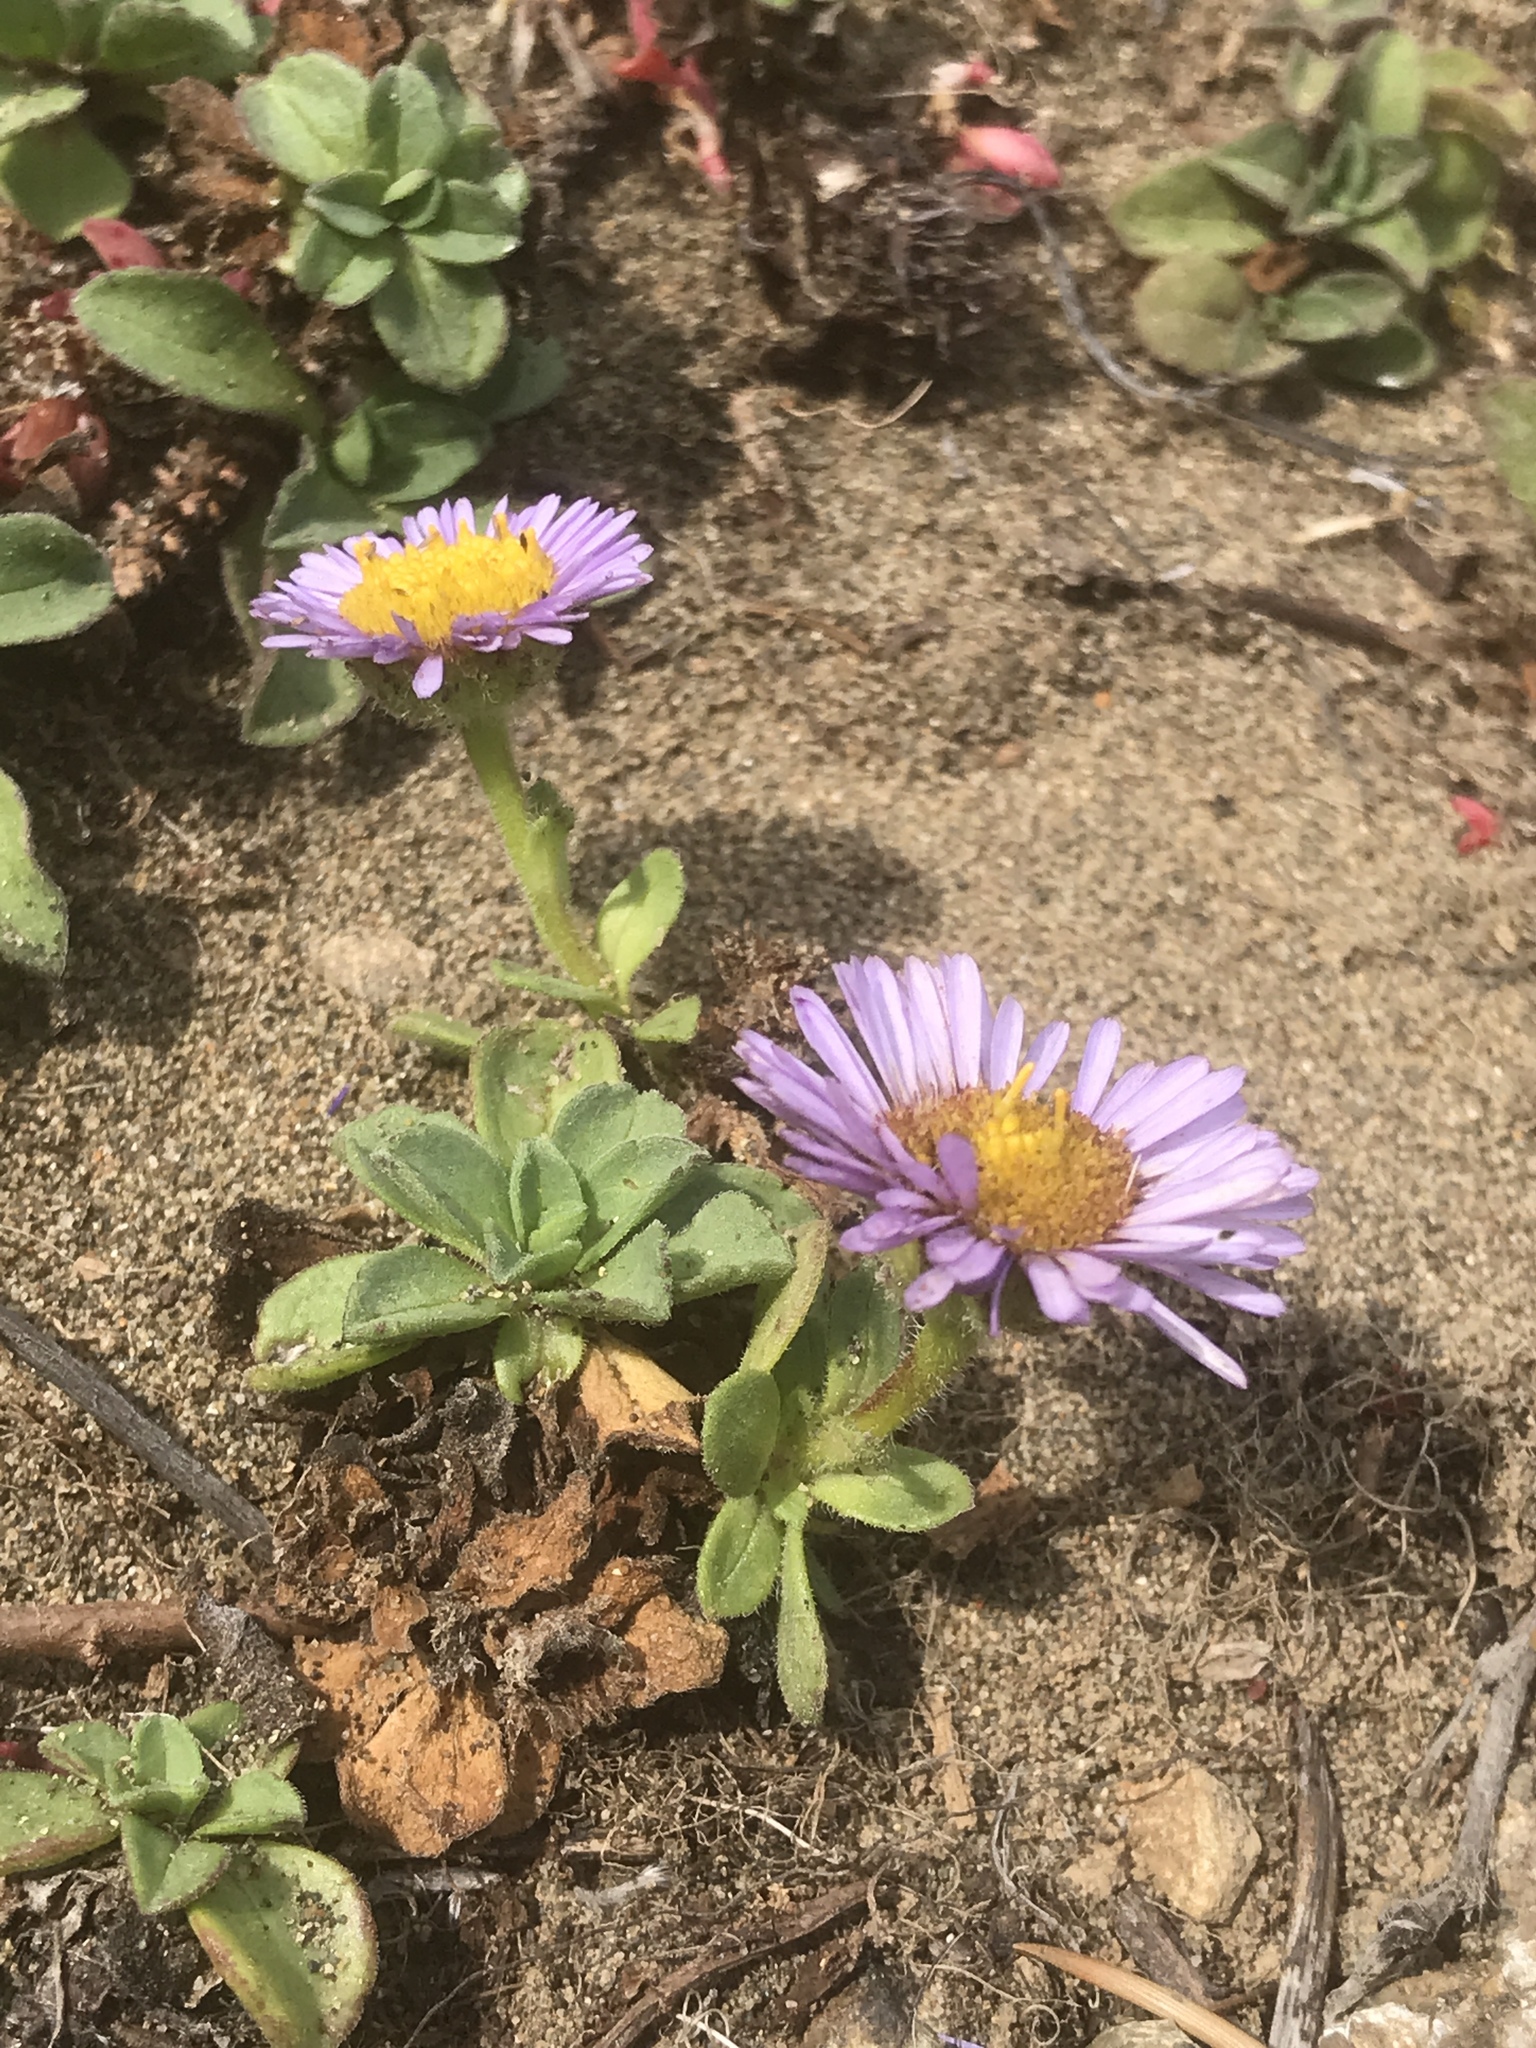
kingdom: Plantae
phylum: Tracheophyta
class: Magnoliopsida
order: Asterales
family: Asteraceae
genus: Erigeron
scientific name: Erigeron glaucus
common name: Seaside daisy
